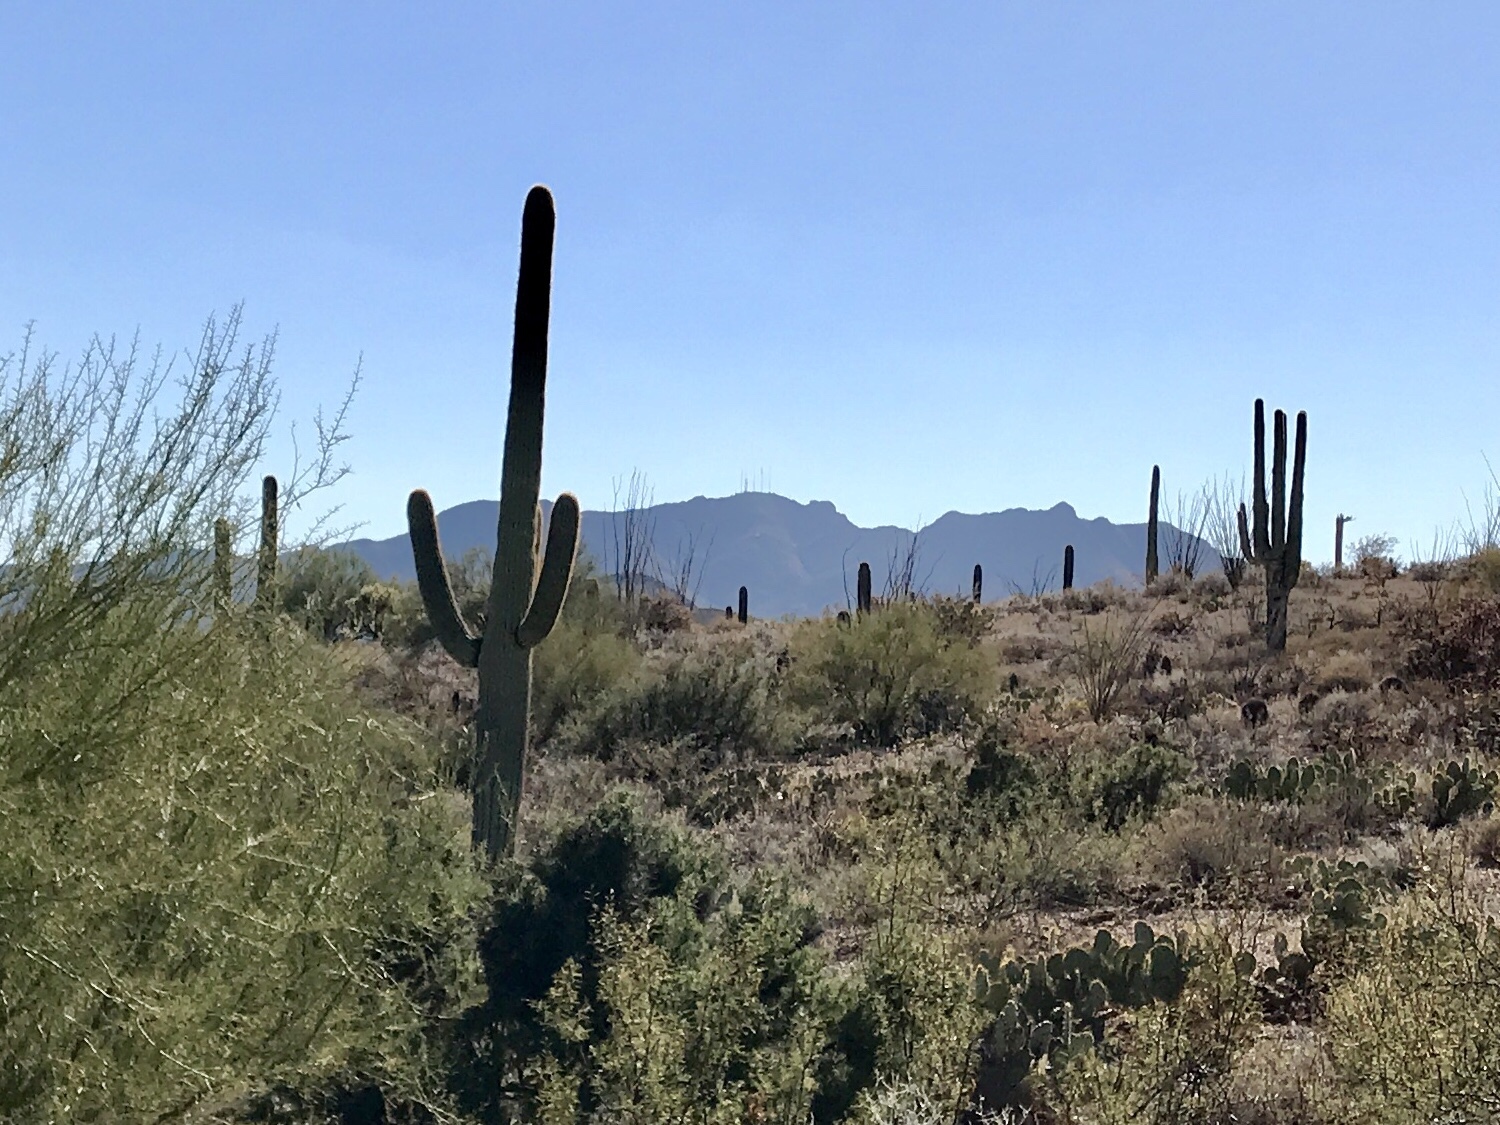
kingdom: Plantae
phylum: Tracheophyta
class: Magnoliopsida
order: Caryophyllales
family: Cactaceae
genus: Carnegiea
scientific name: Carnegiea gigantea
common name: Saguaro
